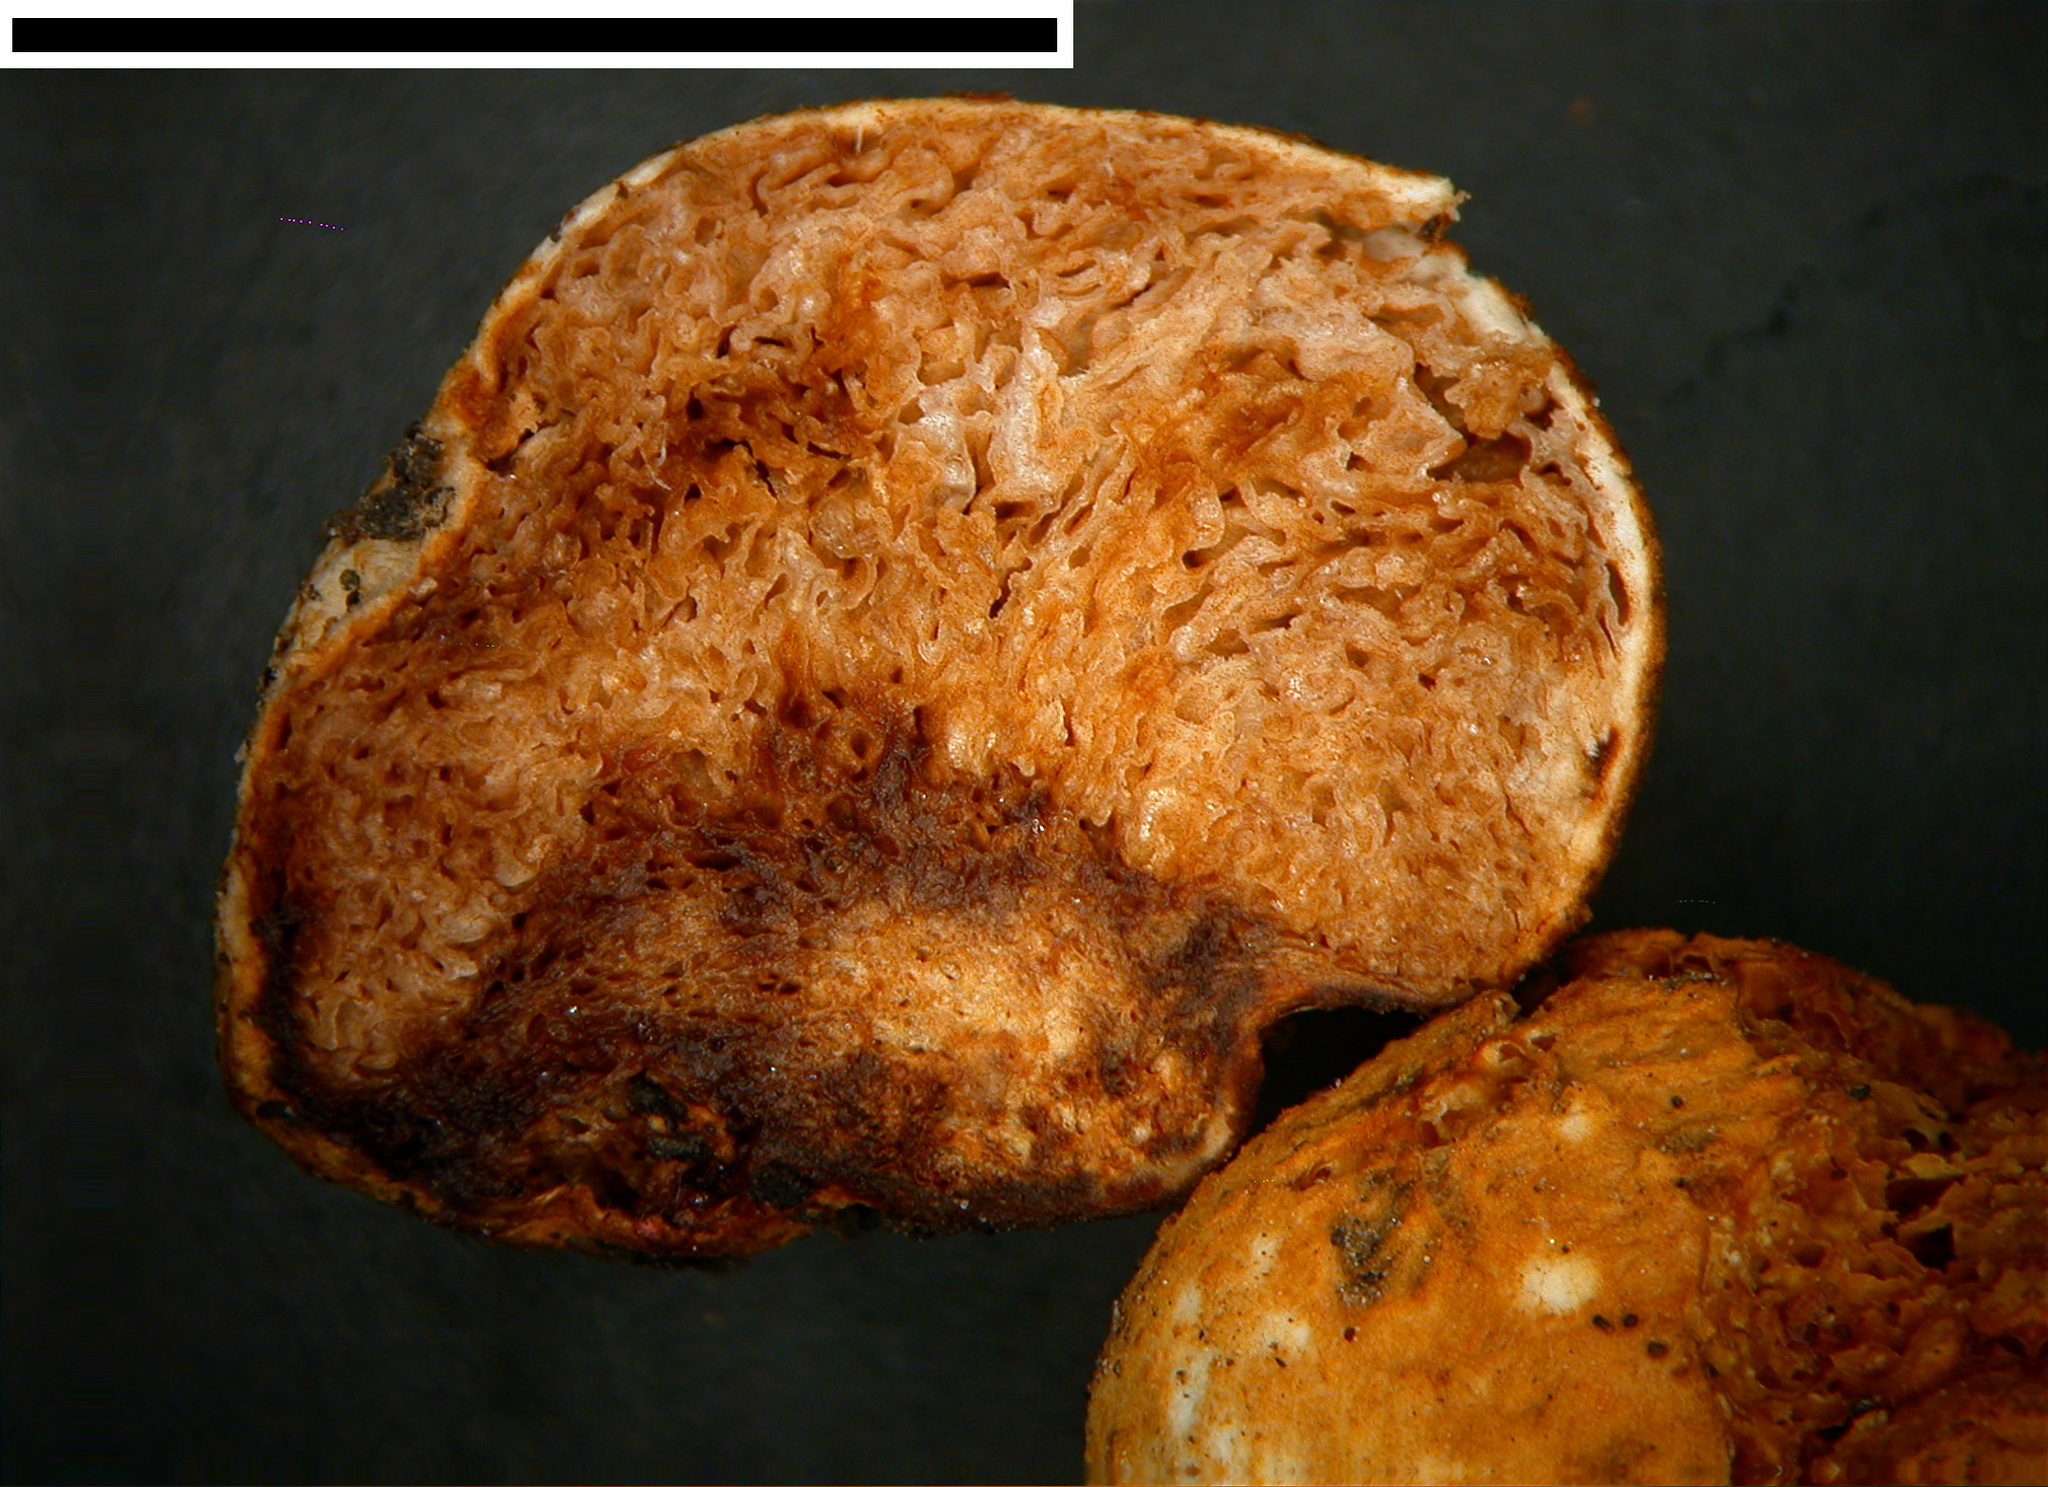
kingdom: Fungi
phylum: Basidiomycota
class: Agaricomycetes
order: Agaricales
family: Bolbitiaceae
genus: Timgrovea
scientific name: Timgrovea reticulata
